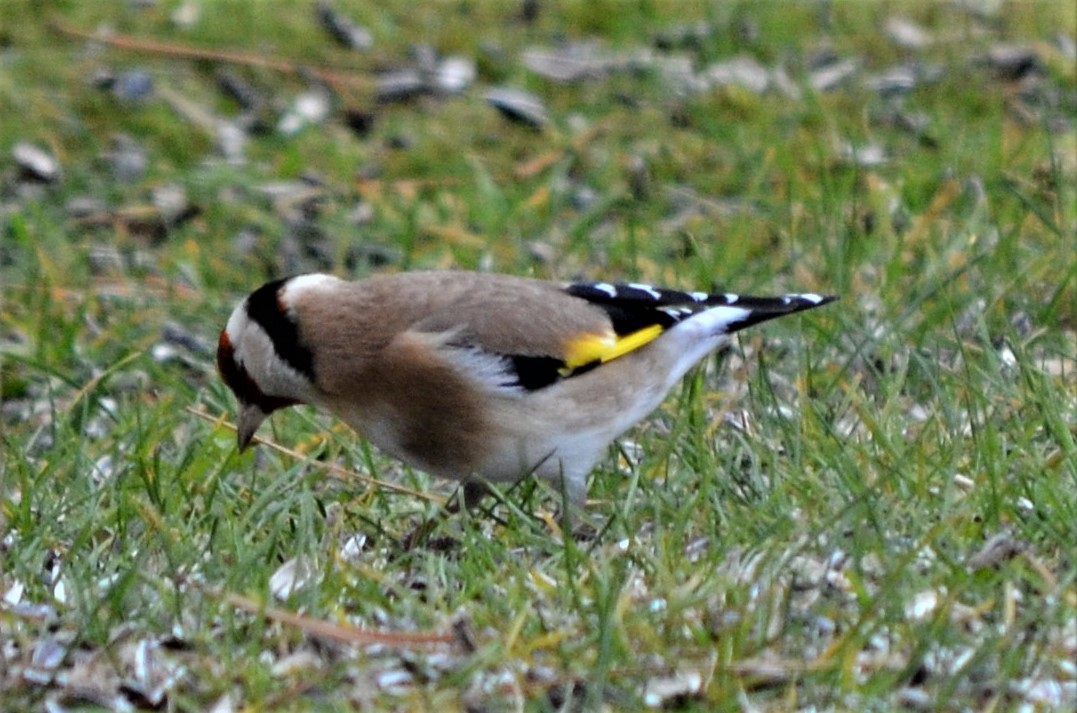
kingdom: Animalia
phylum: Chordata
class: Aves
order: Passeriformes
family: Fringillidae
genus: Carduelis
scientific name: Carduelis carduelis
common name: European goldfinch
